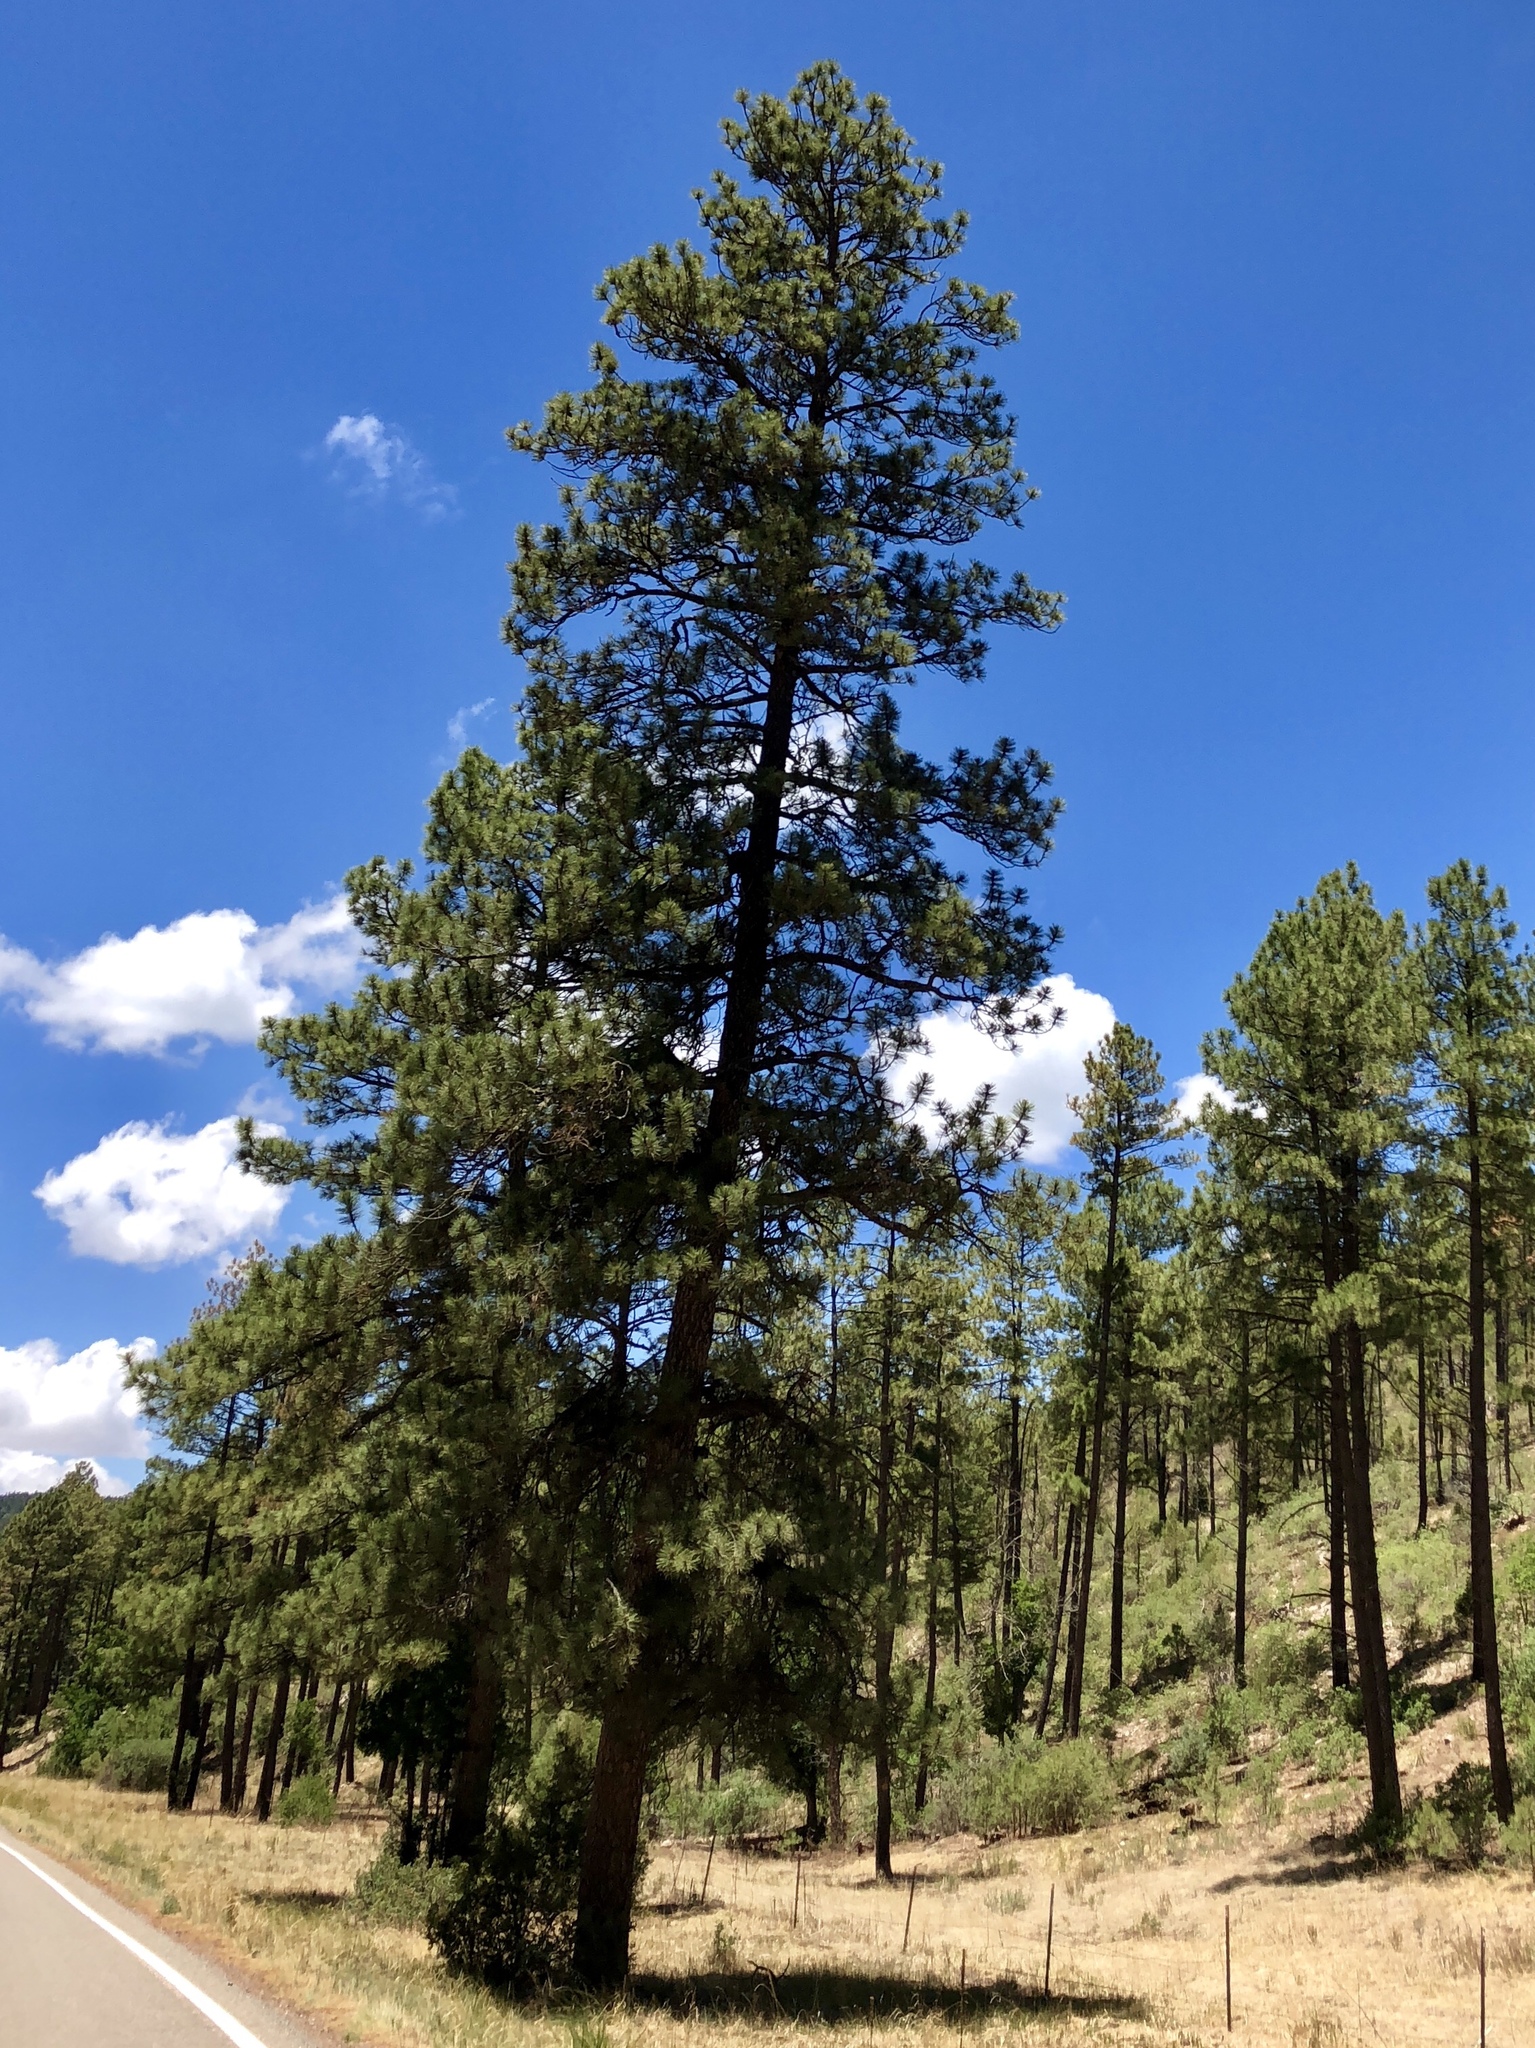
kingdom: Plantae
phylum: Tracheophyta
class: Pinopsida
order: Pinales
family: Pinaceae
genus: Pinus
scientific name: Pinus ponderosa
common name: Western yellow-pine
